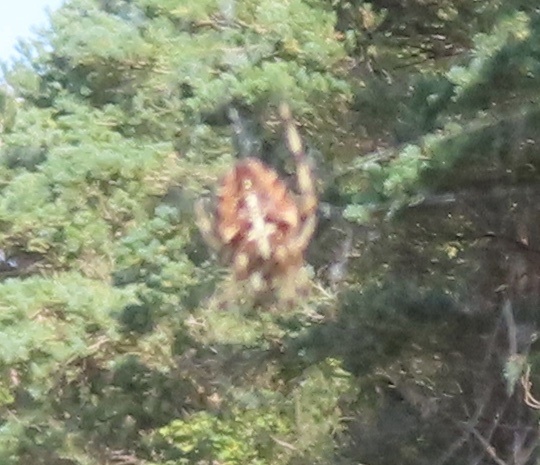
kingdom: Animalia
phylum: Arthropoda
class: Arachnida
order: Araneae
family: Araneidae
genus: Araneus
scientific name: Araneus diadematus
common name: Cross orbweaver
